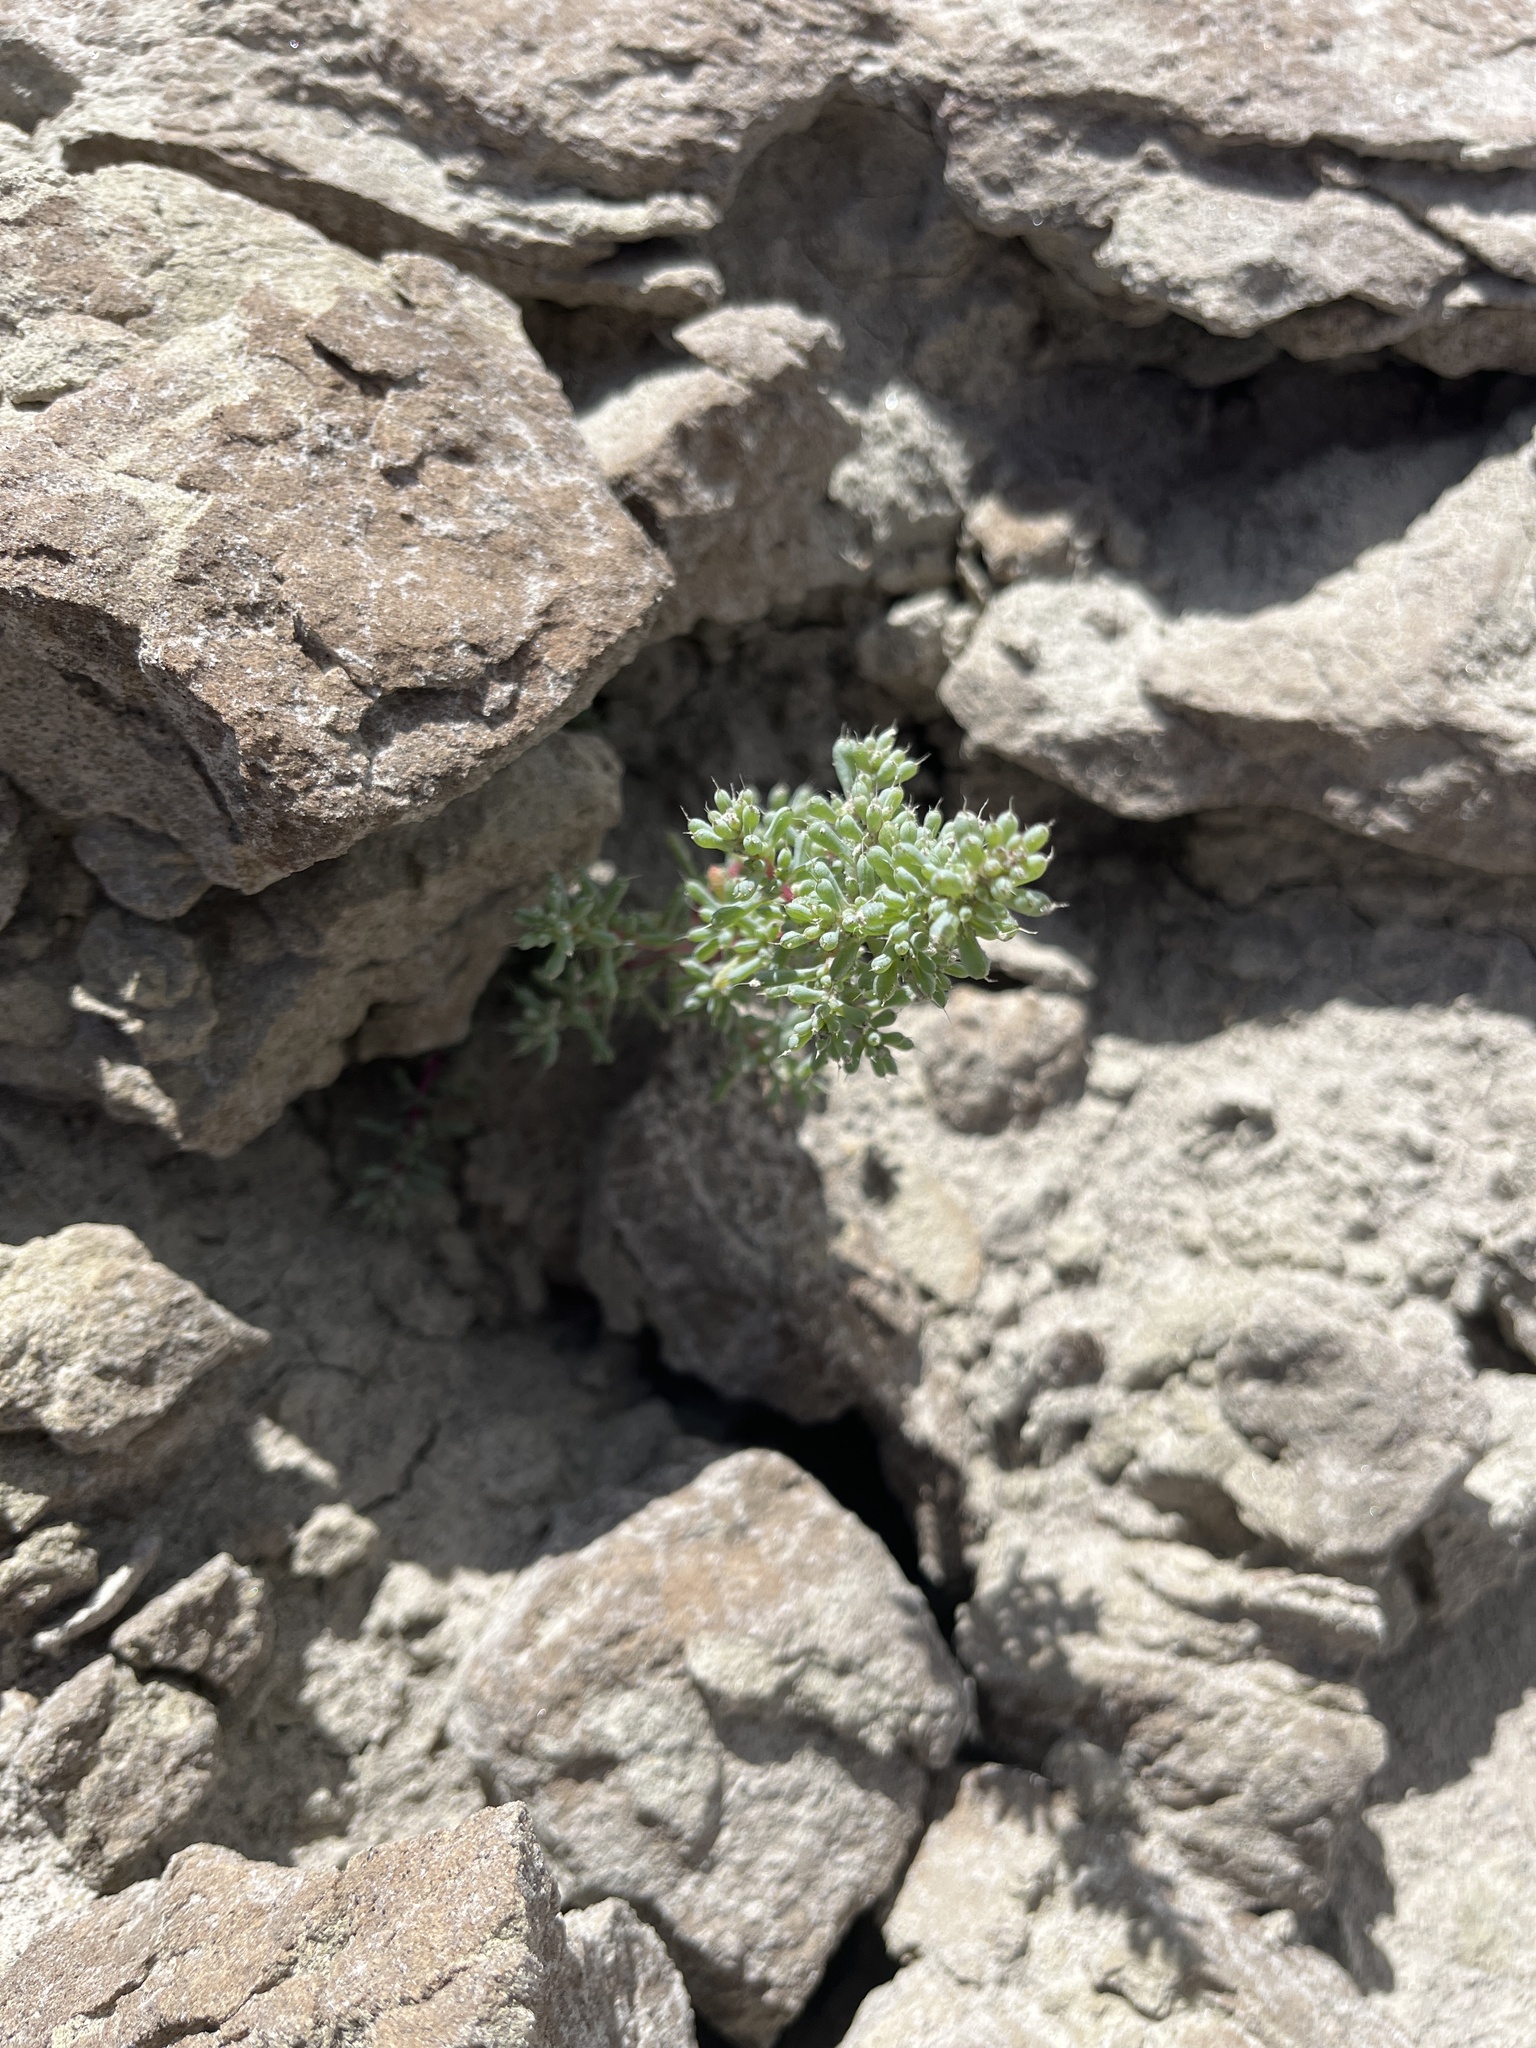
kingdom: Plantae
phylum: Tracheophyta
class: Magnoliopsida
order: Caryophyllales
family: Amaranthaceae
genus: Halogeton
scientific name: Halogeton glomeratus
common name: Saltlover
